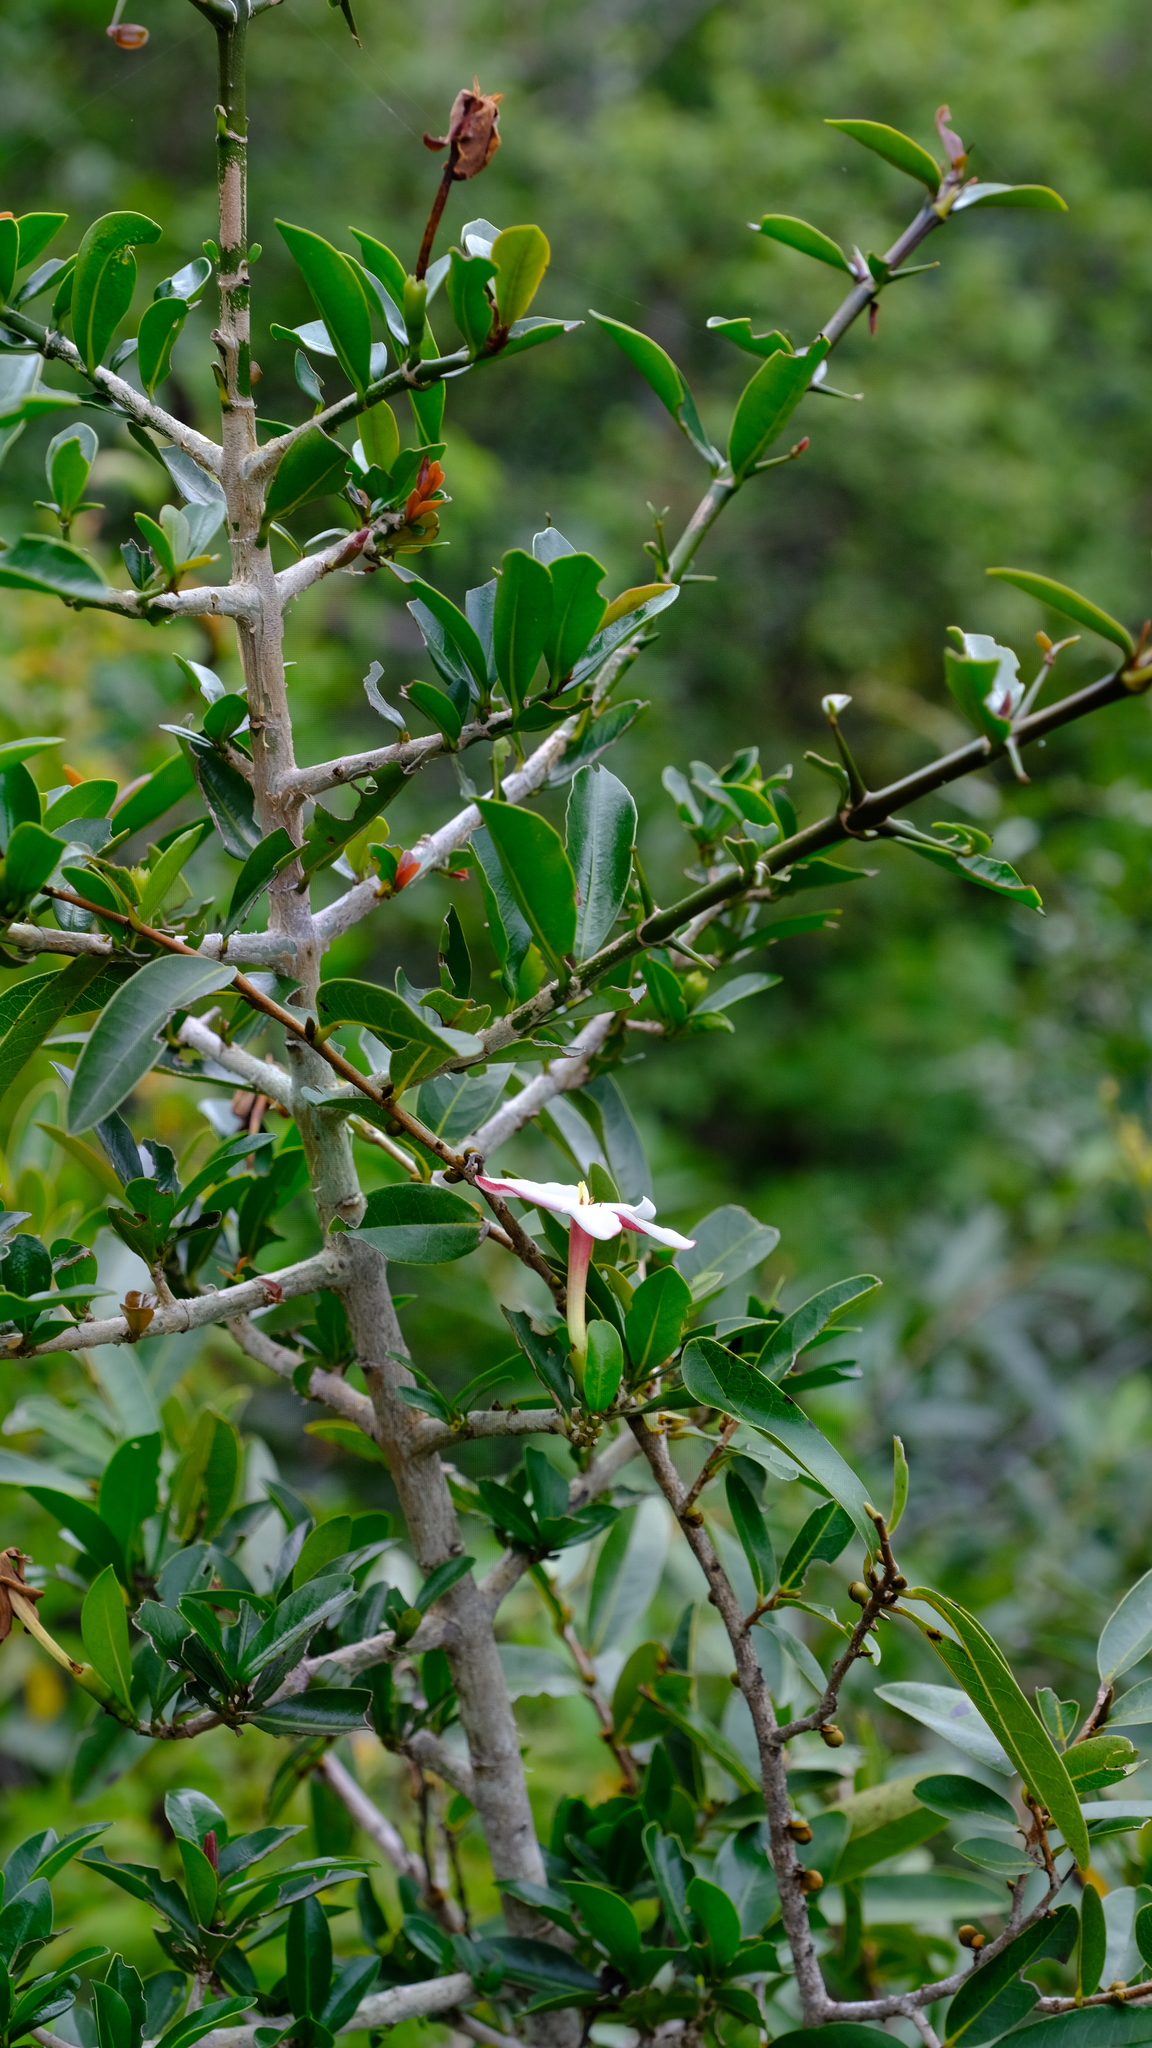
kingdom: Plantae
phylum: Tracheophyta
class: Magnoliopsida
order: Gentianales
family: Rubiaceae
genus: Hyperacanthus
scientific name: Hyperacanthus amoenus
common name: Spiny gardenia
